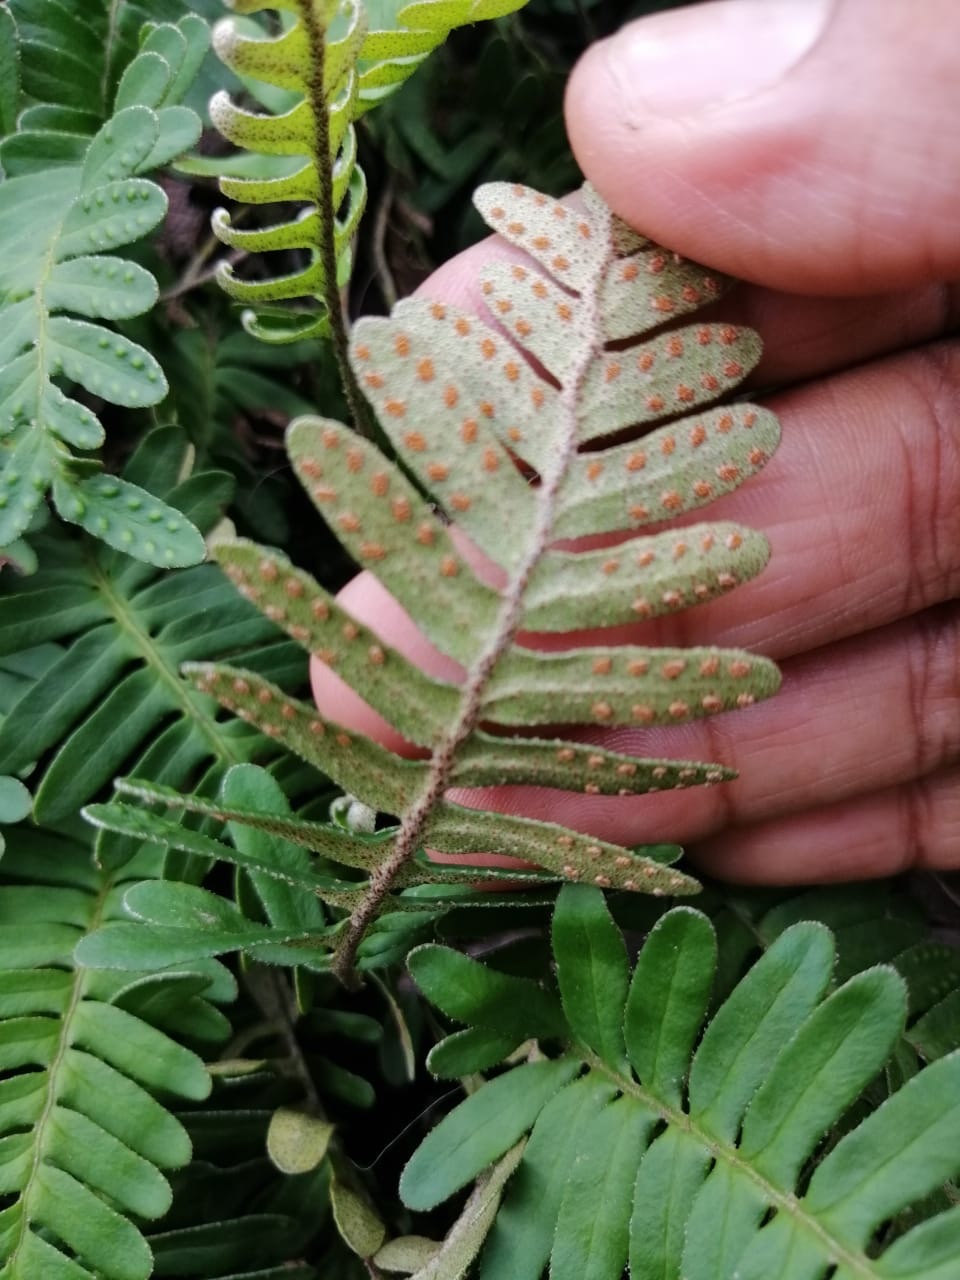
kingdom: Plantae
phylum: Tracheophyta
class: Polypodiopsida
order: Polypodiales
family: Polypodiaceae
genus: Pleopeltis
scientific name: Pleopeltis michauxiana
